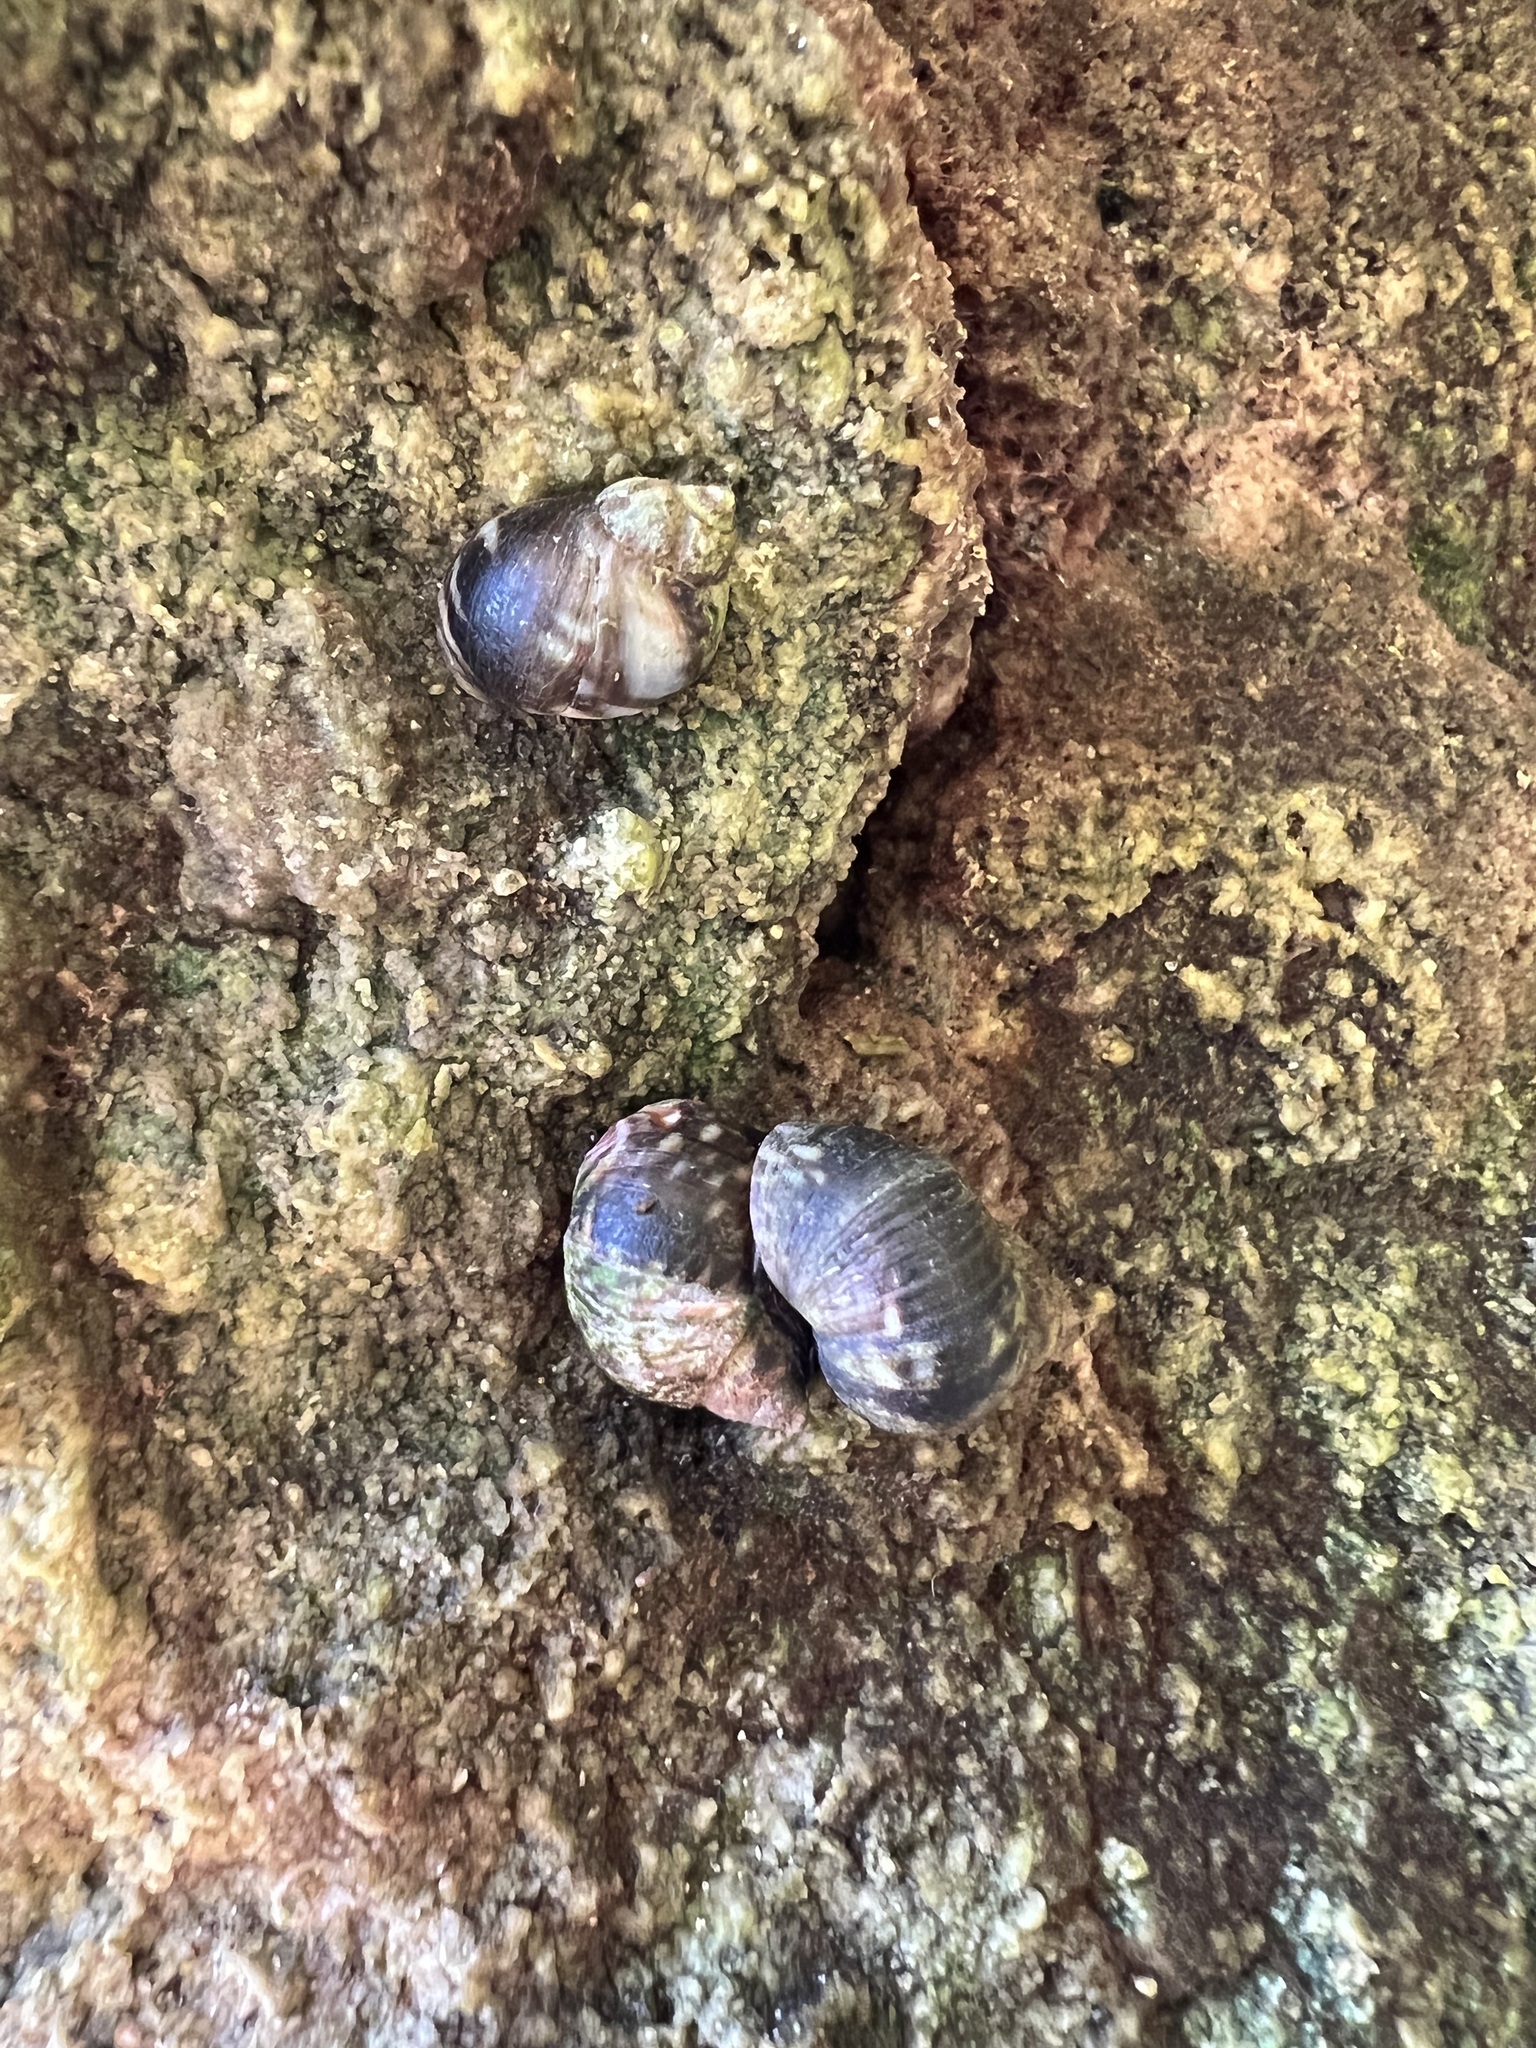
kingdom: Animalia
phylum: Mollusca
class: Gastropoda
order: Littorinimorpha
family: Littorinidae
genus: Littorina
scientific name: Littorina keenae
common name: Eroded periwinkle
